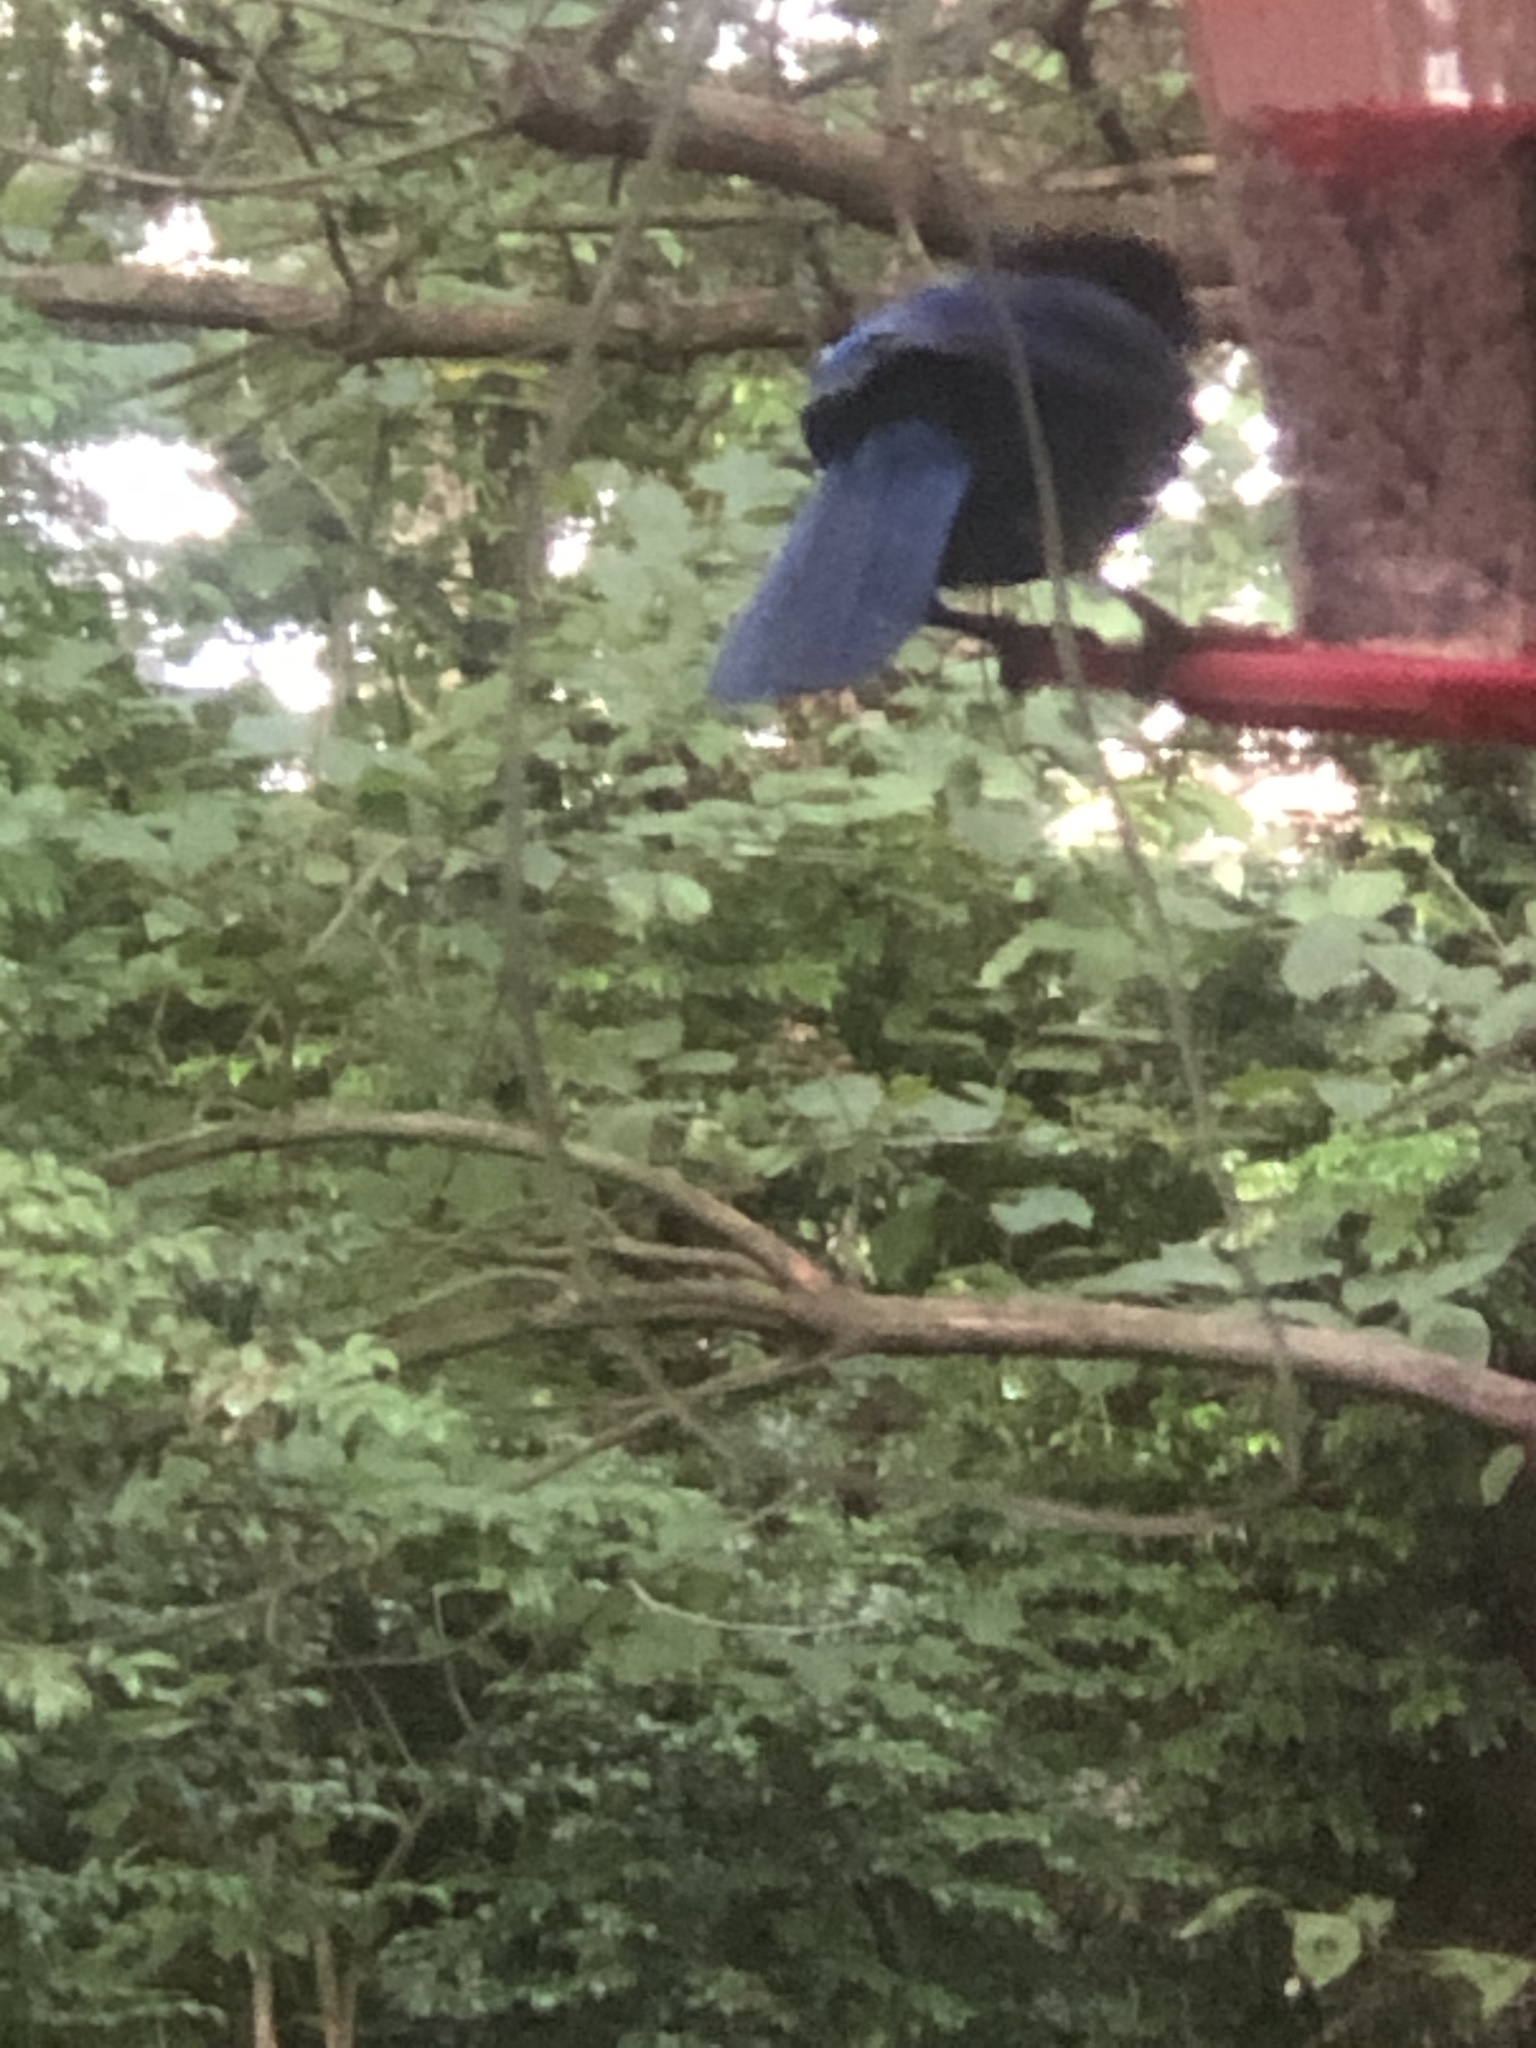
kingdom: Animalia
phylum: Chordata
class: Aves
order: Passeriformes
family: Corvidae
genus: Cyanocitta
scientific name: Cyanocitta stelleri
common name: Steller's jay
